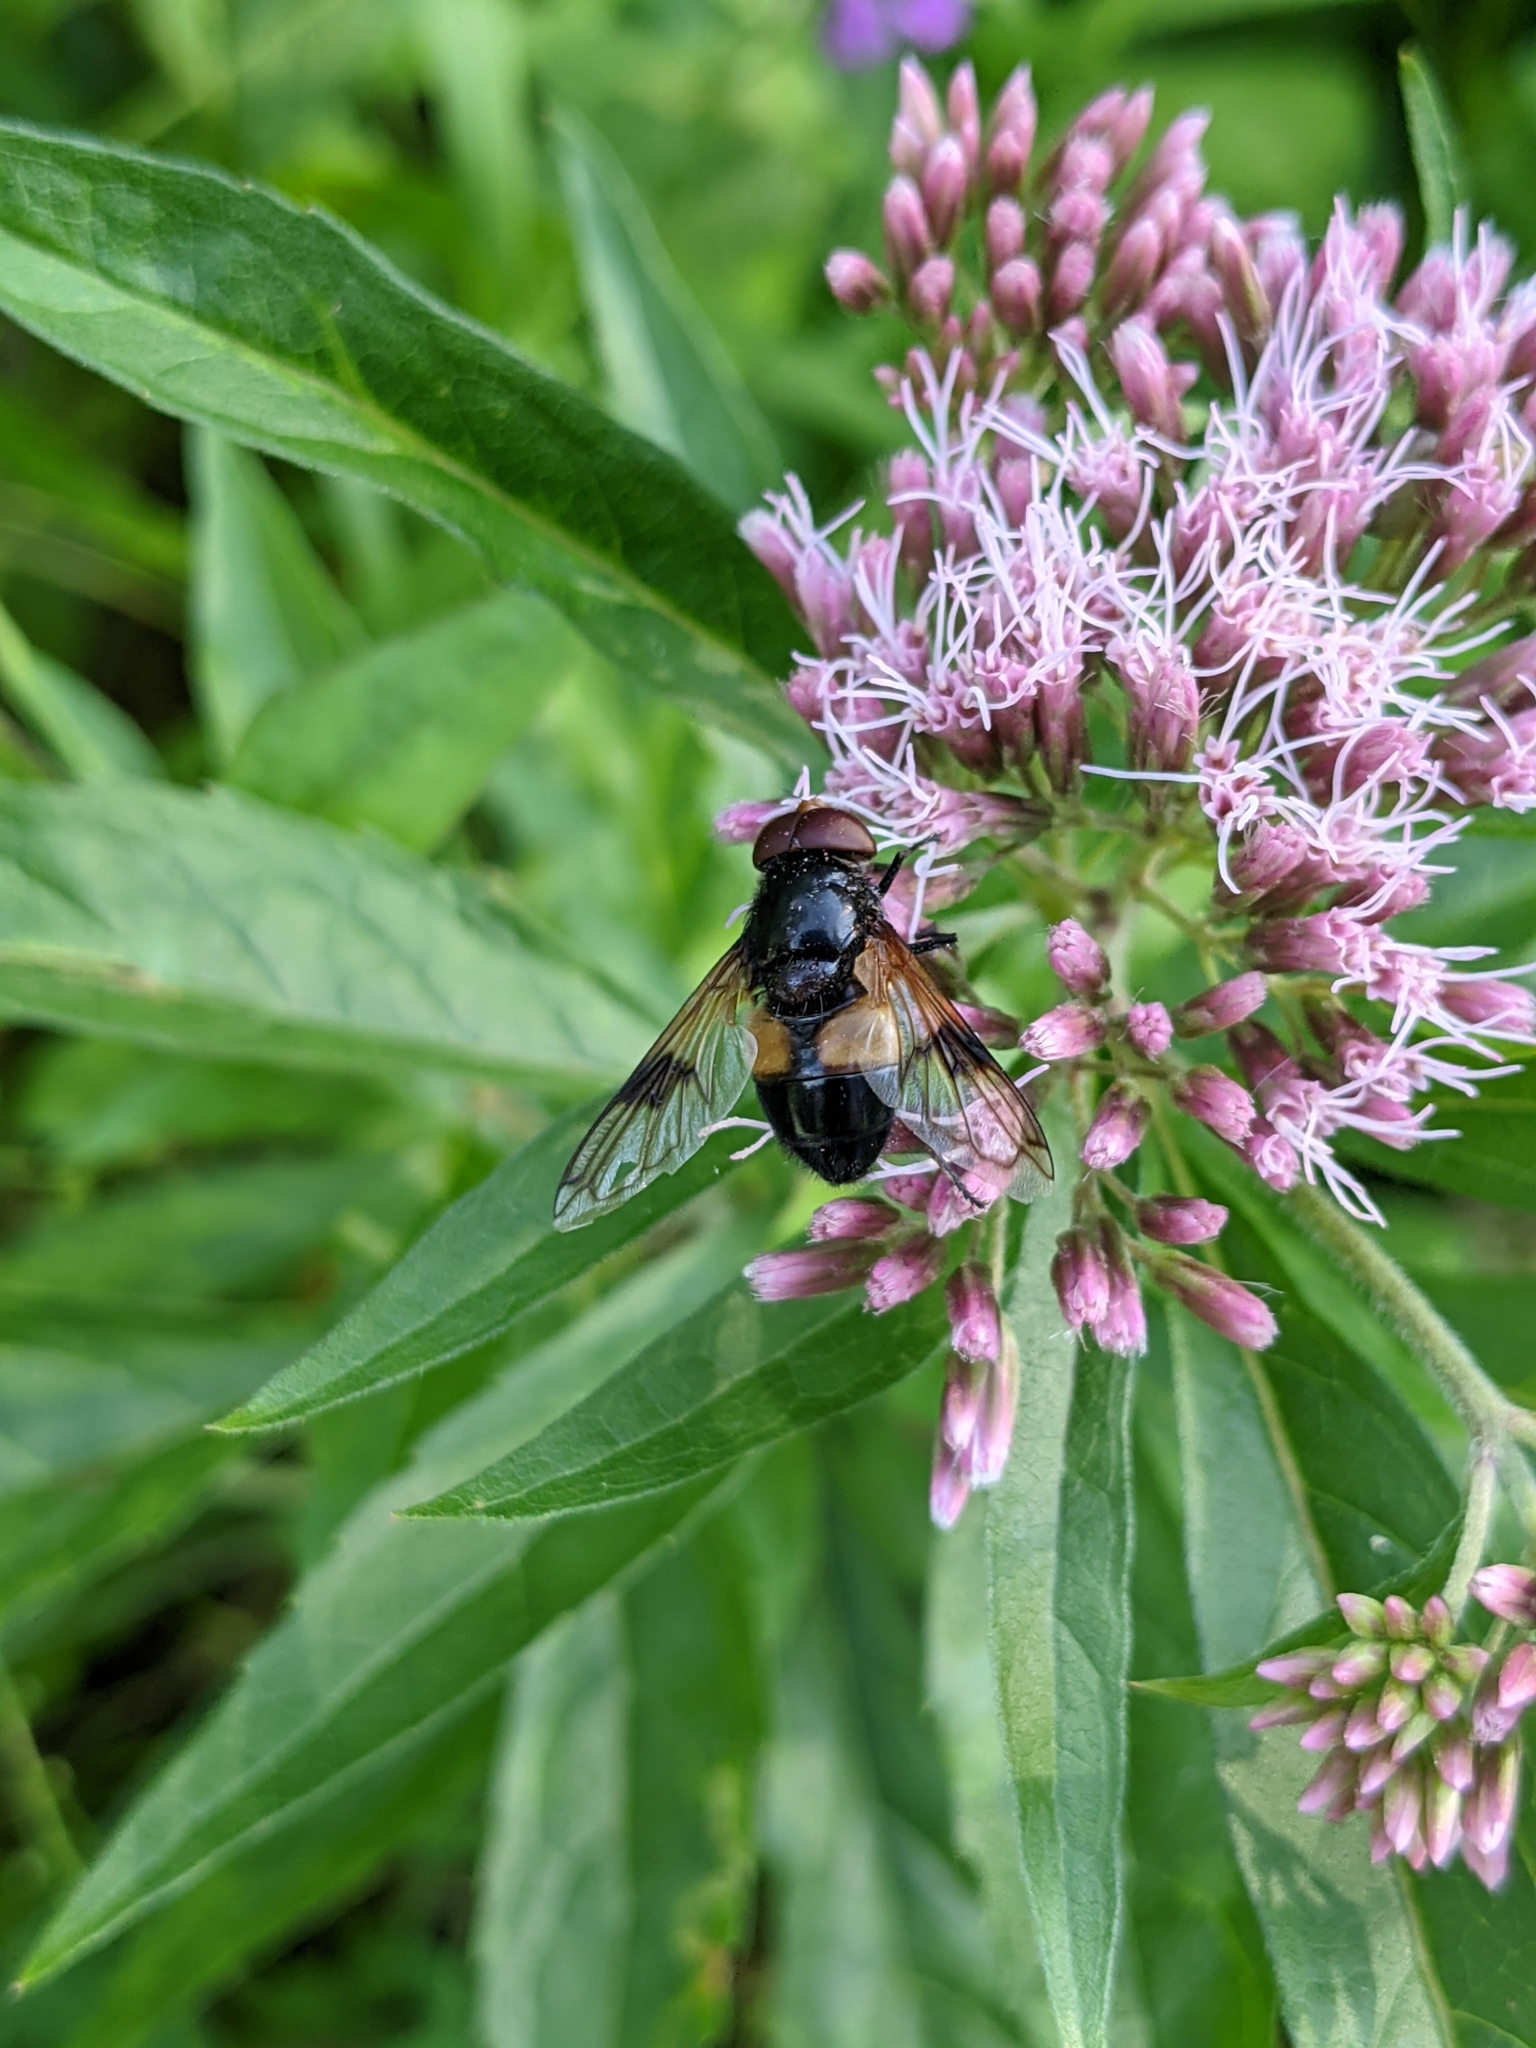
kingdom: Animalia
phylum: Arthropoda
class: Insecta
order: Diptera
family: Syrphidae
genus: Volucella
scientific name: Volucella pellucens
